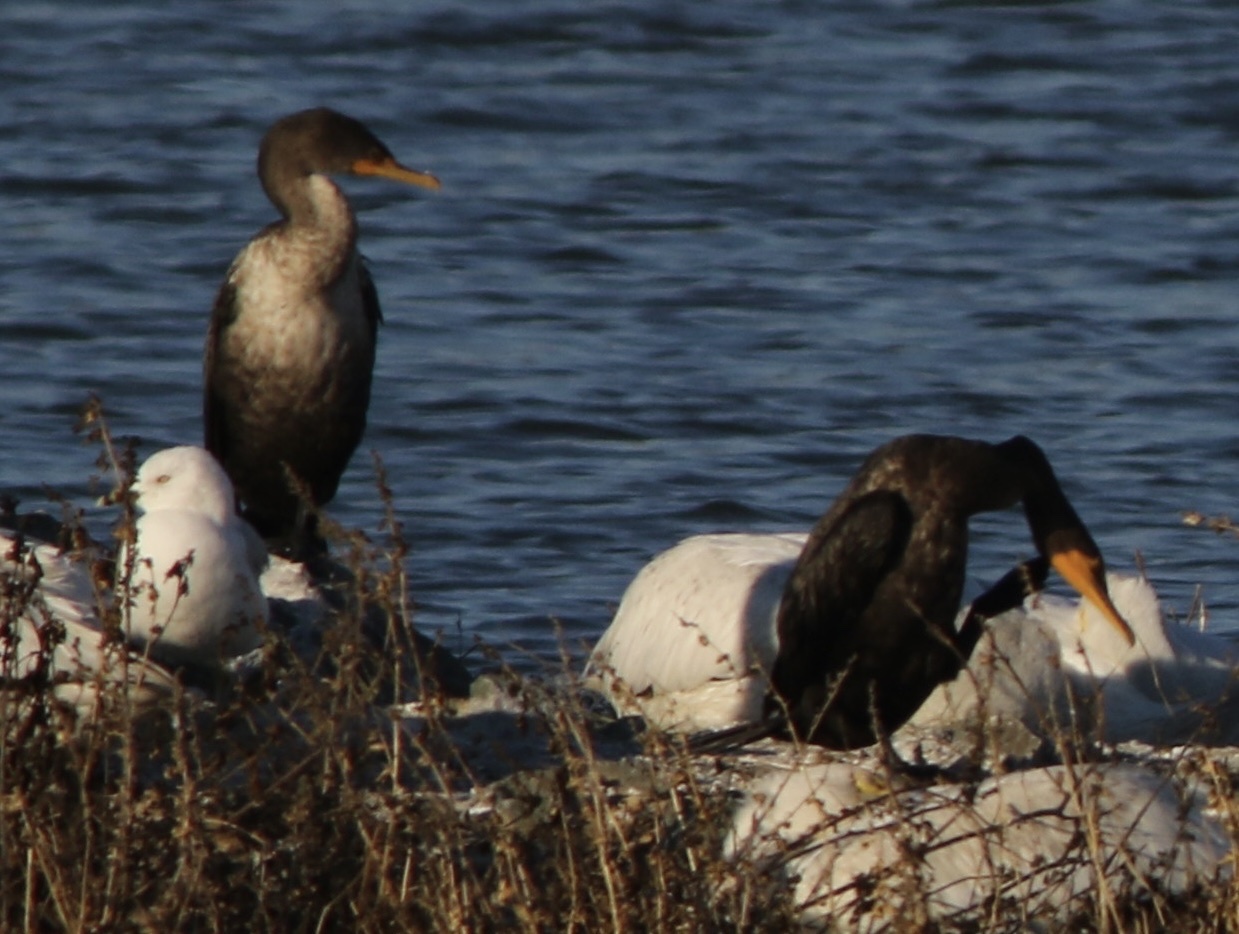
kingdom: Animalia
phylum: Chordata
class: Aves
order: Suliformes
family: Phalacrocoracidae
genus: Phalacrocorax
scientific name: Phalacrocorax auritus
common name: Double-crested cormorant
